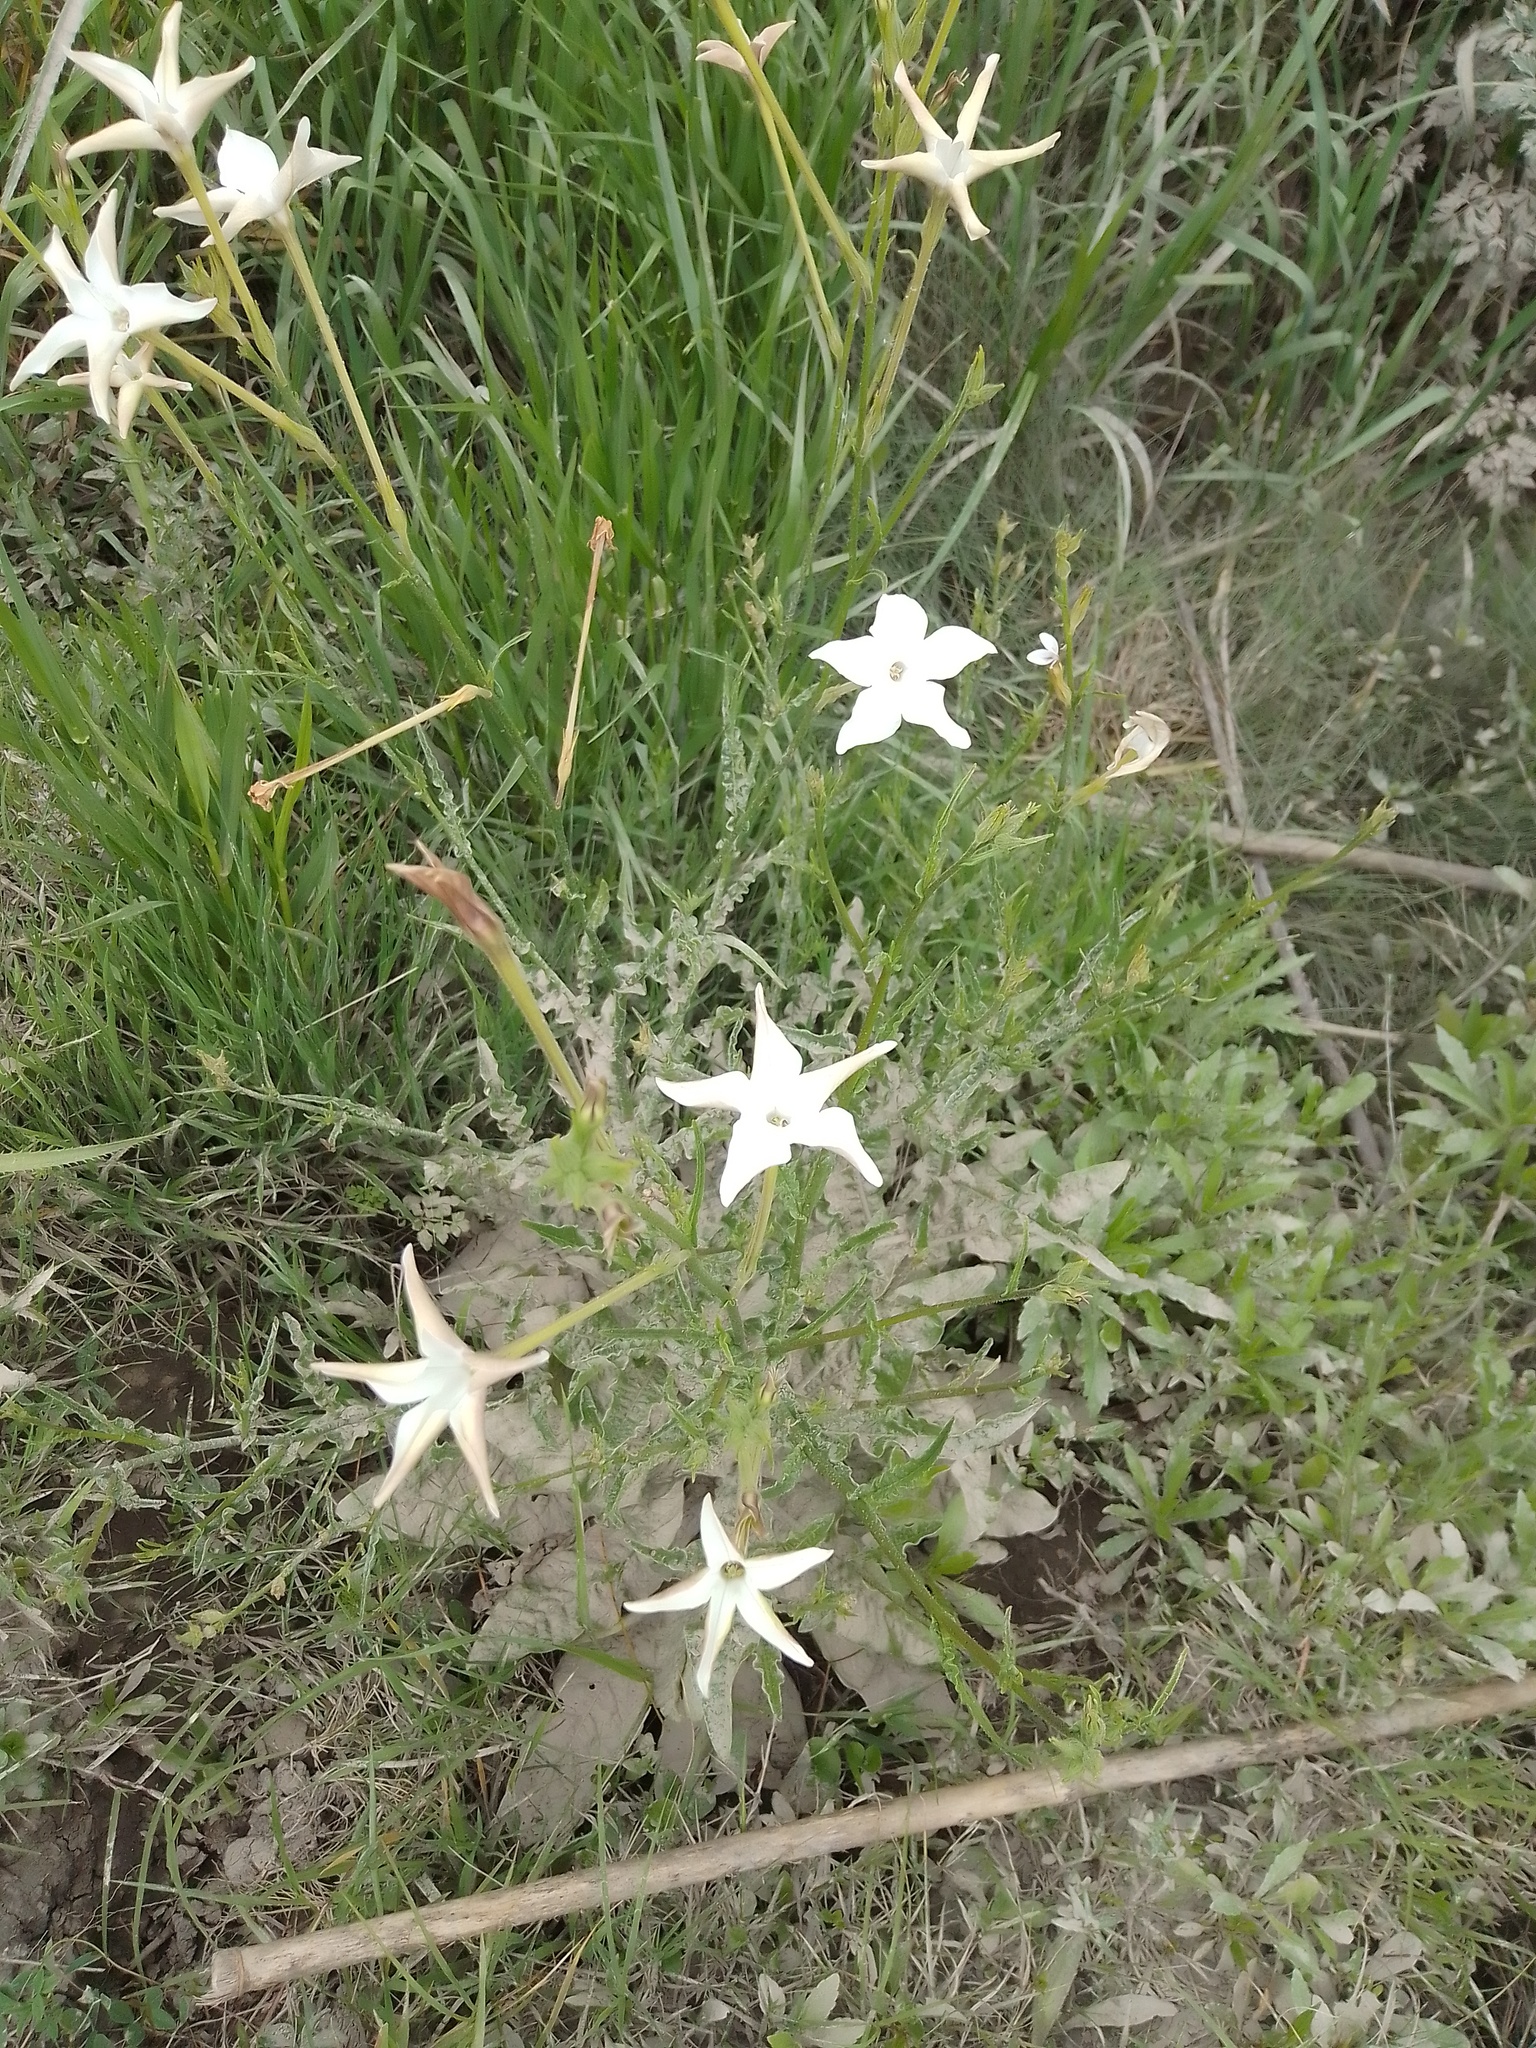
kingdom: Plantae
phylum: Tracheophyta
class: Magnoliopsida
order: Solanales
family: Solanaceae
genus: Nicotiana
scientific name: Nicotiana longiflora
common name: Long-flowered tobacco
